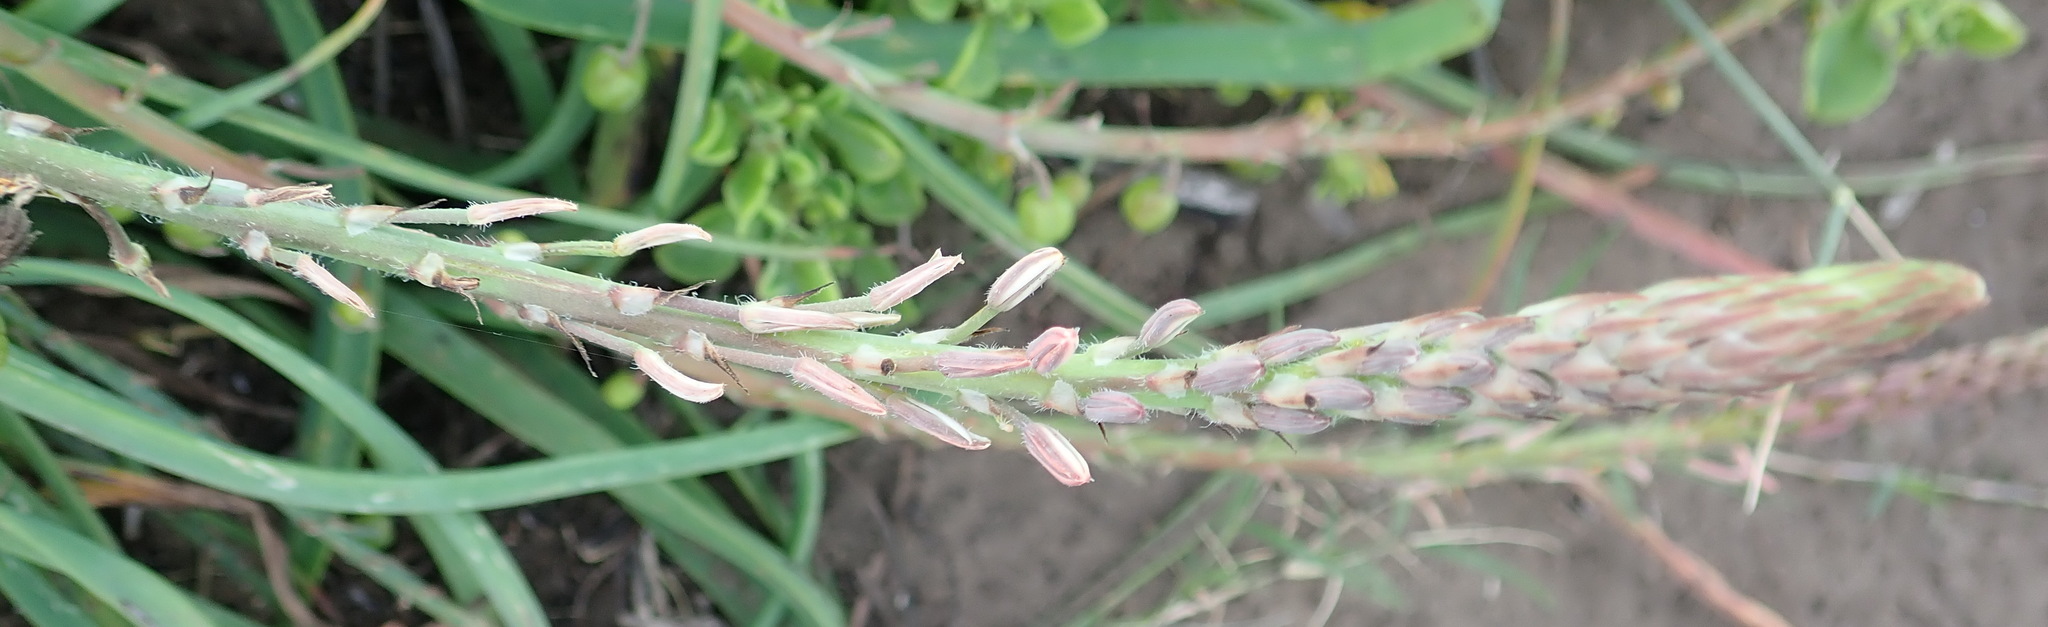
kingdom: Plantae
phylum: Tracheophyta
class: Liliopsida
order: Asparagales
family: Asphodelaceae
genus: Trachyandra
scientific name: Trachyandra ciliata
